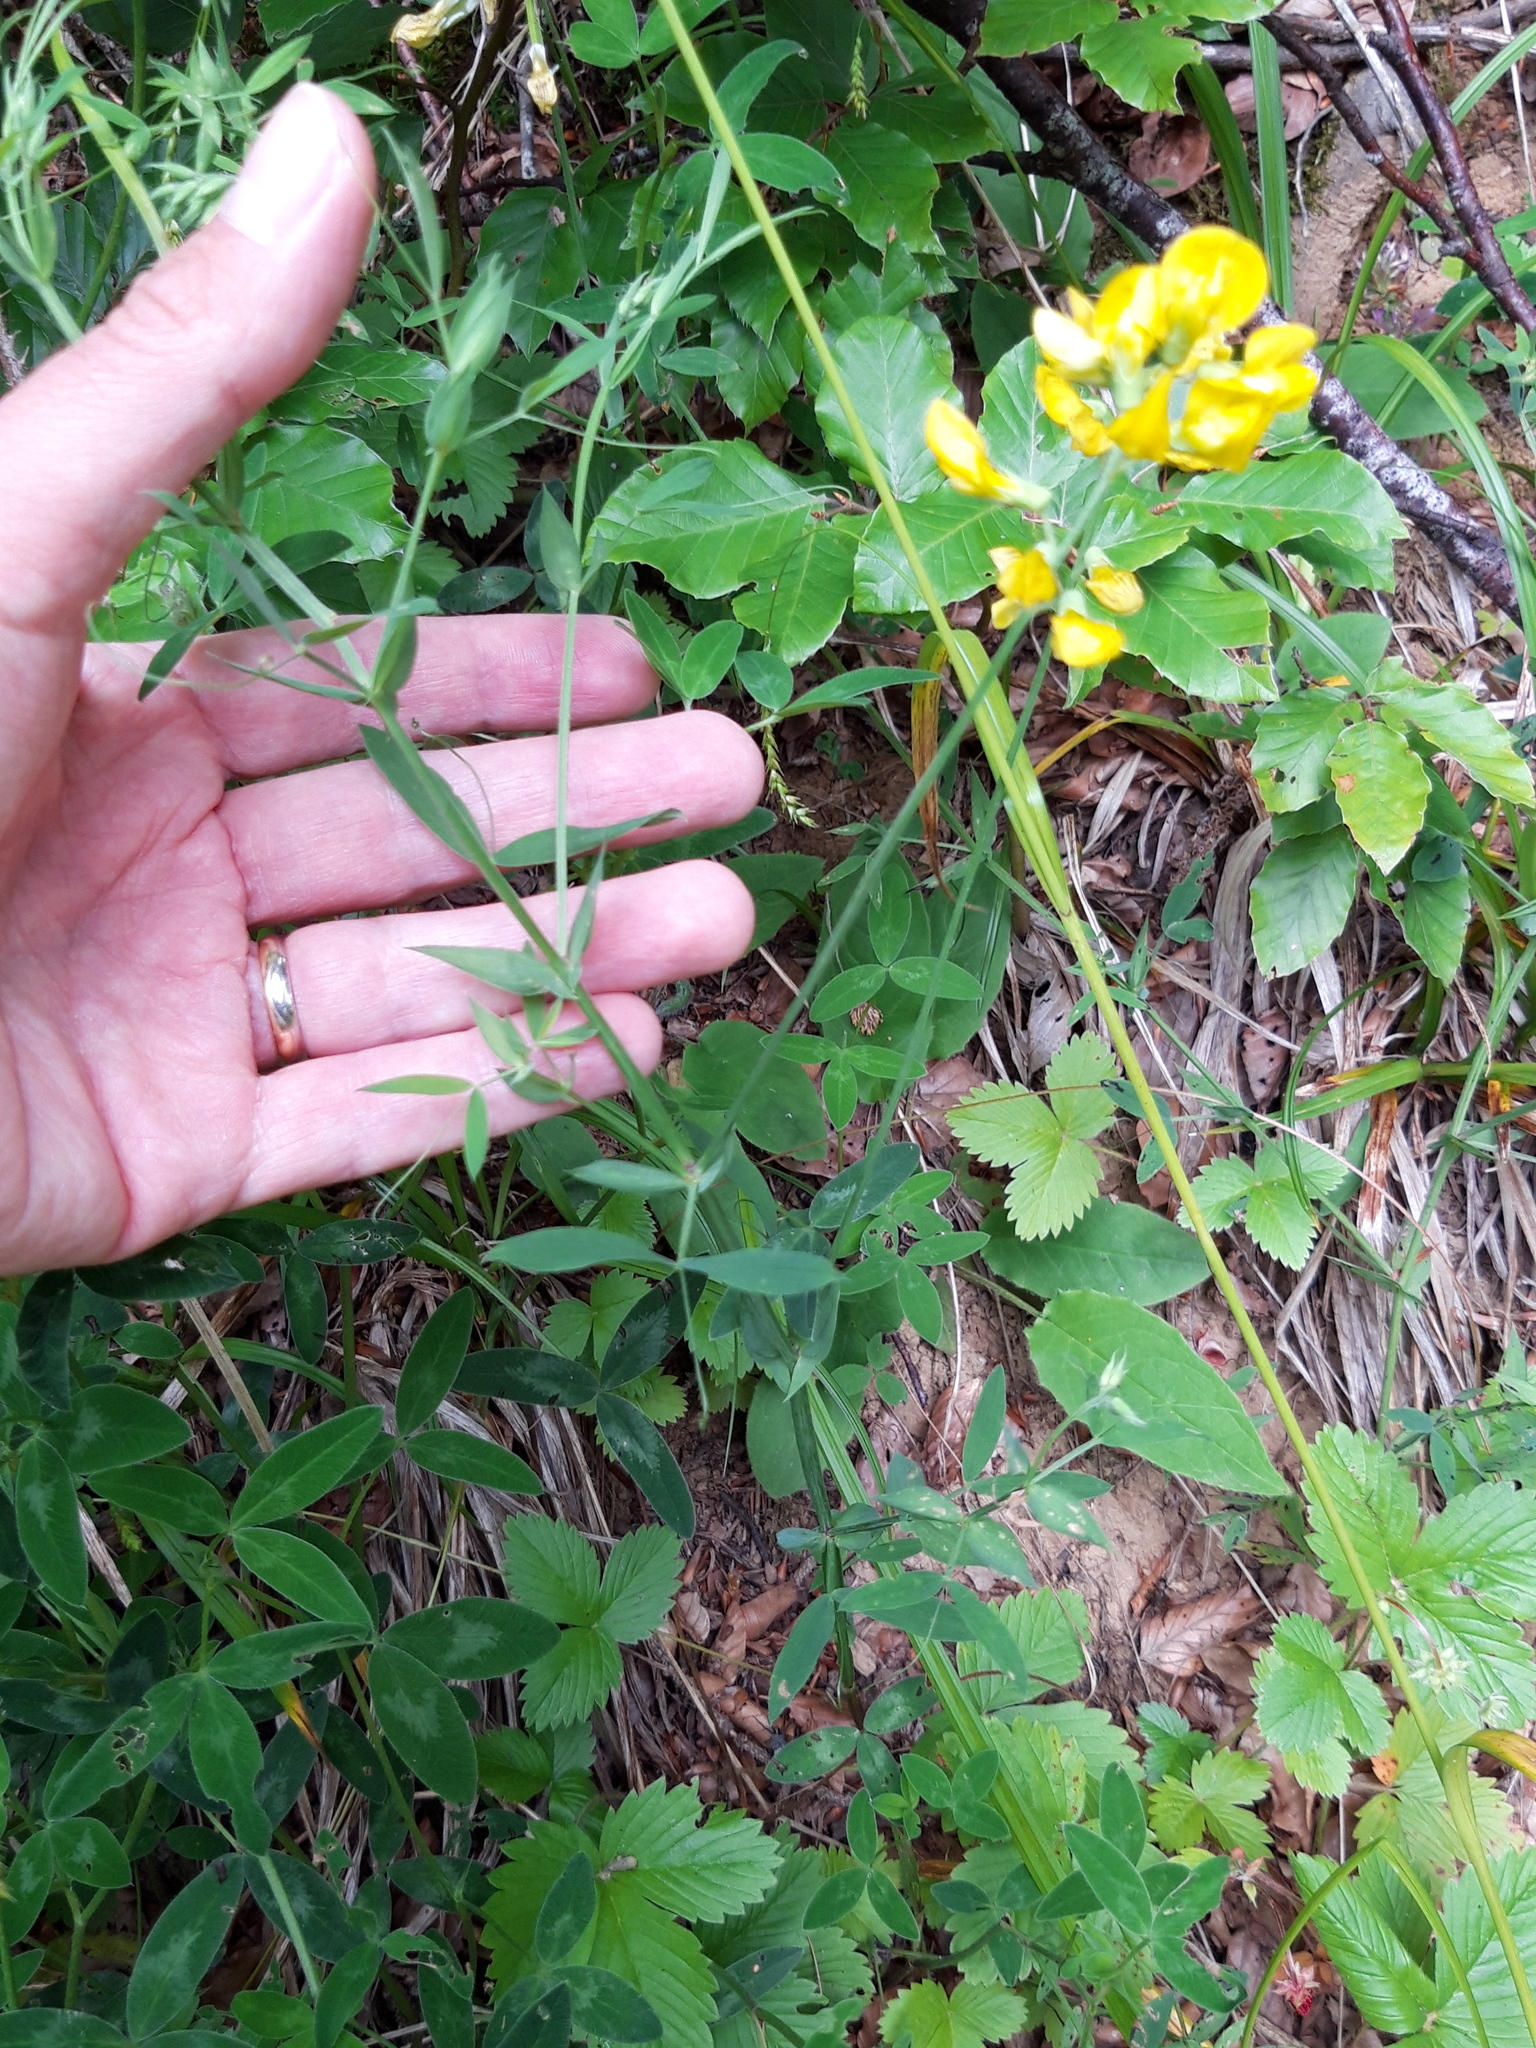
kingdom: Plantae
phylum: Tracheophyta
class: Magnoliopsida
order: Fabales
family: Fabaceae
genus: Lathyrus
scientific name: Lathyrus pratensis
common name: Meadow vetchling
